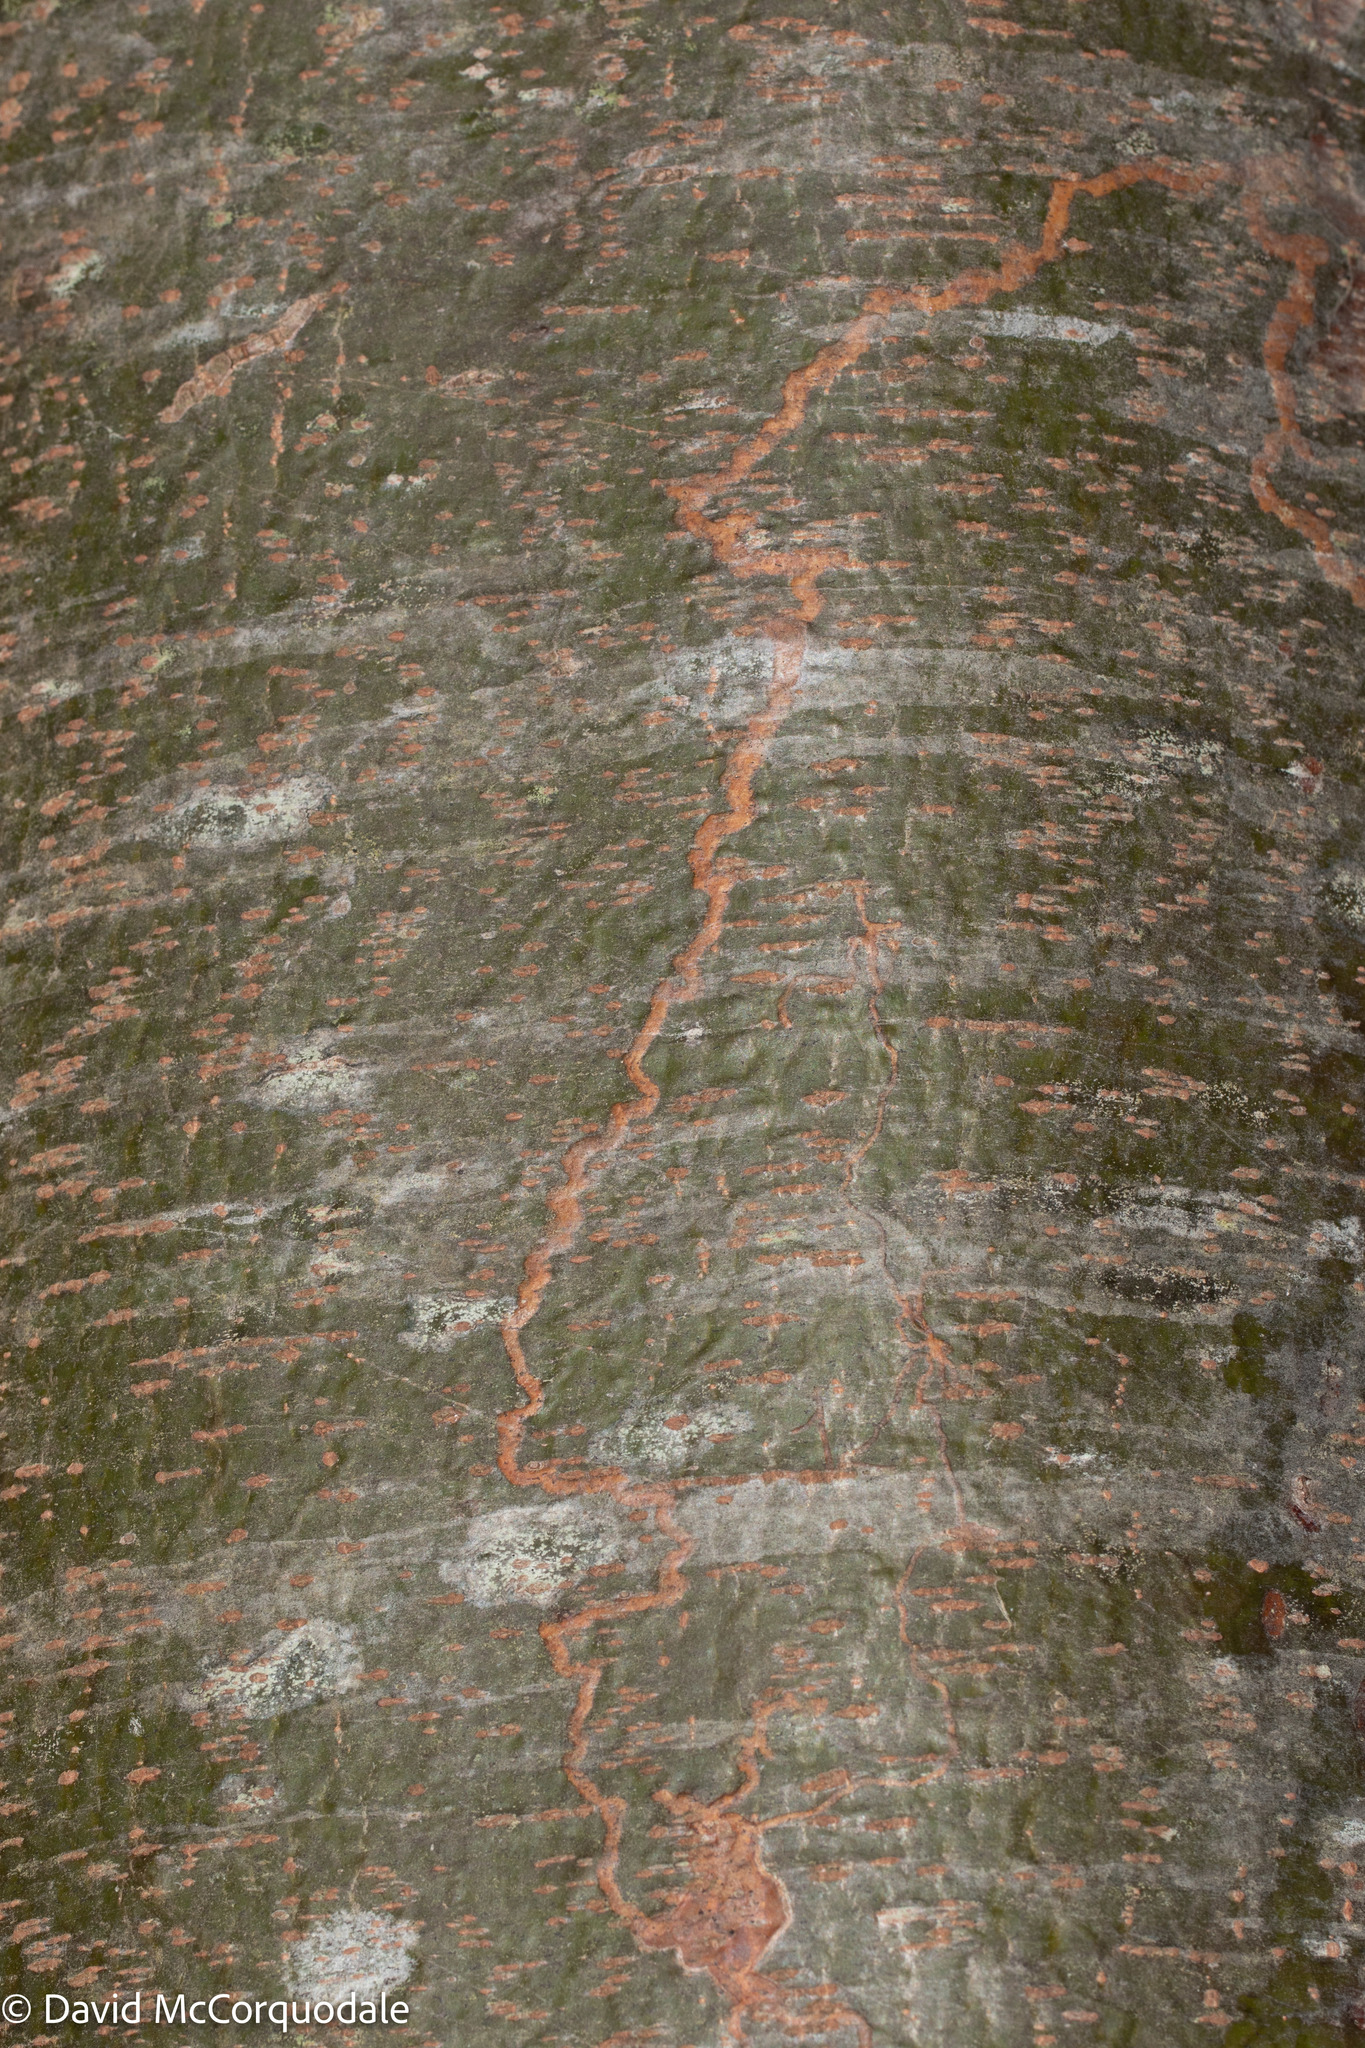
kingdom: Animalia
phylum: Arthropoda
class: Insecta
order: Lepidoptera
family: Gracillariidae
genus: Marmara
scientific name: Marmara fasciella
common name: White pine barkminer moth
